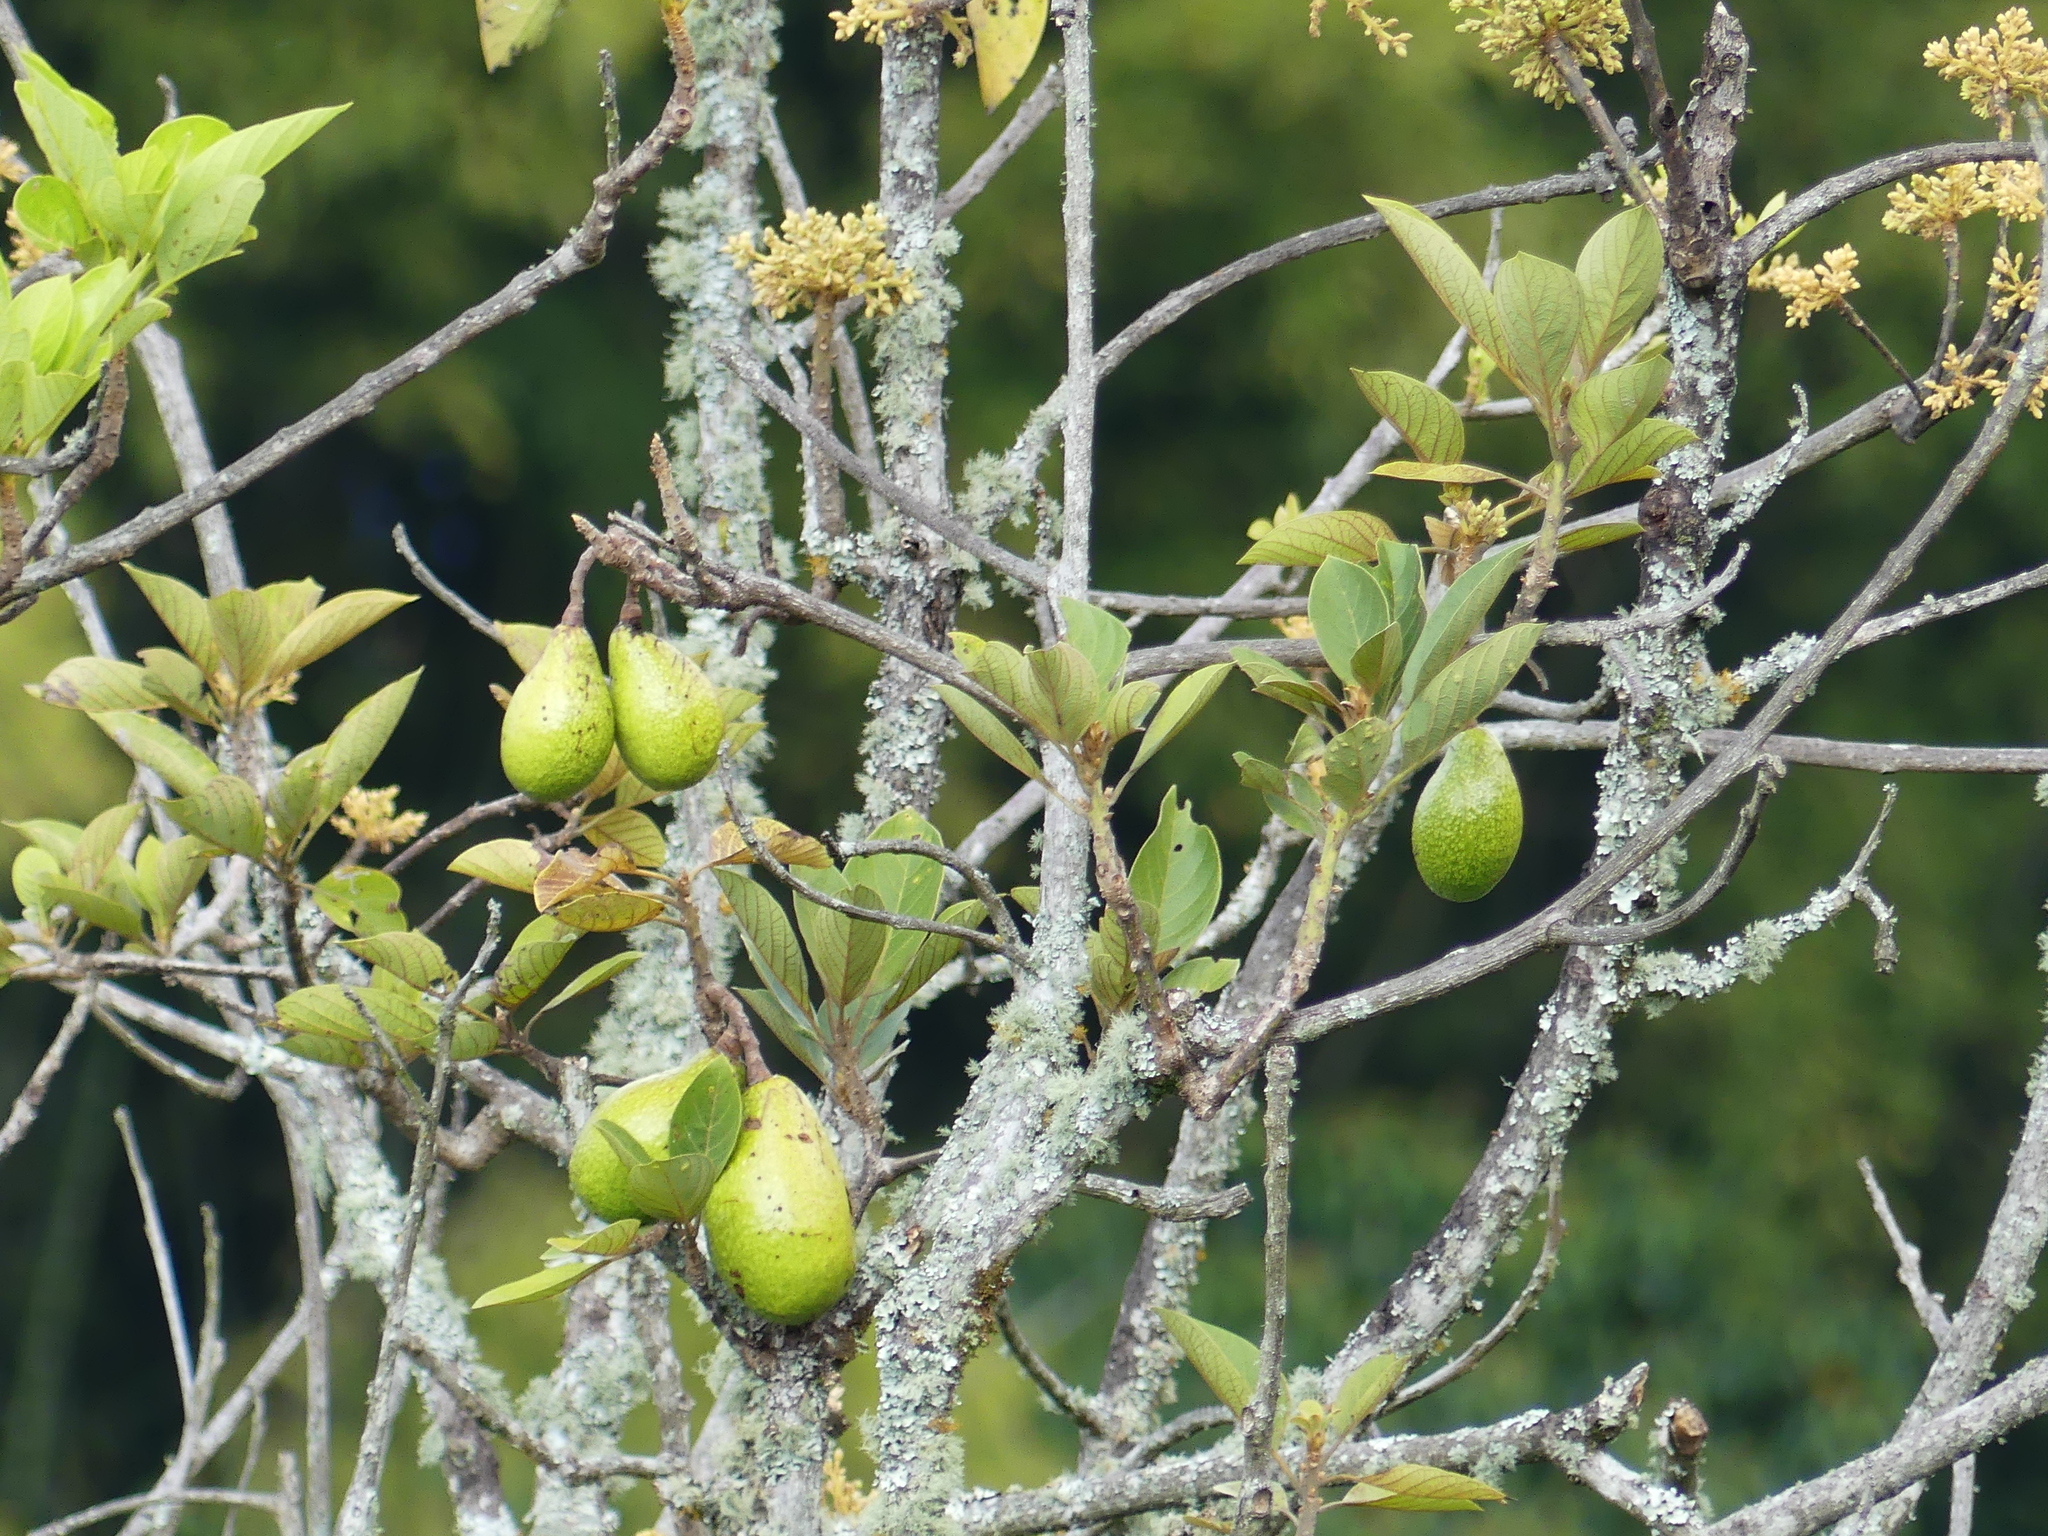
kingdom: Plantae
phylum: Tracheophyta
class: Magnoliopsida
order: Laurales
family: Lauraceae
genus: Persea
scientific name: Persea americana
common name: Avocado
